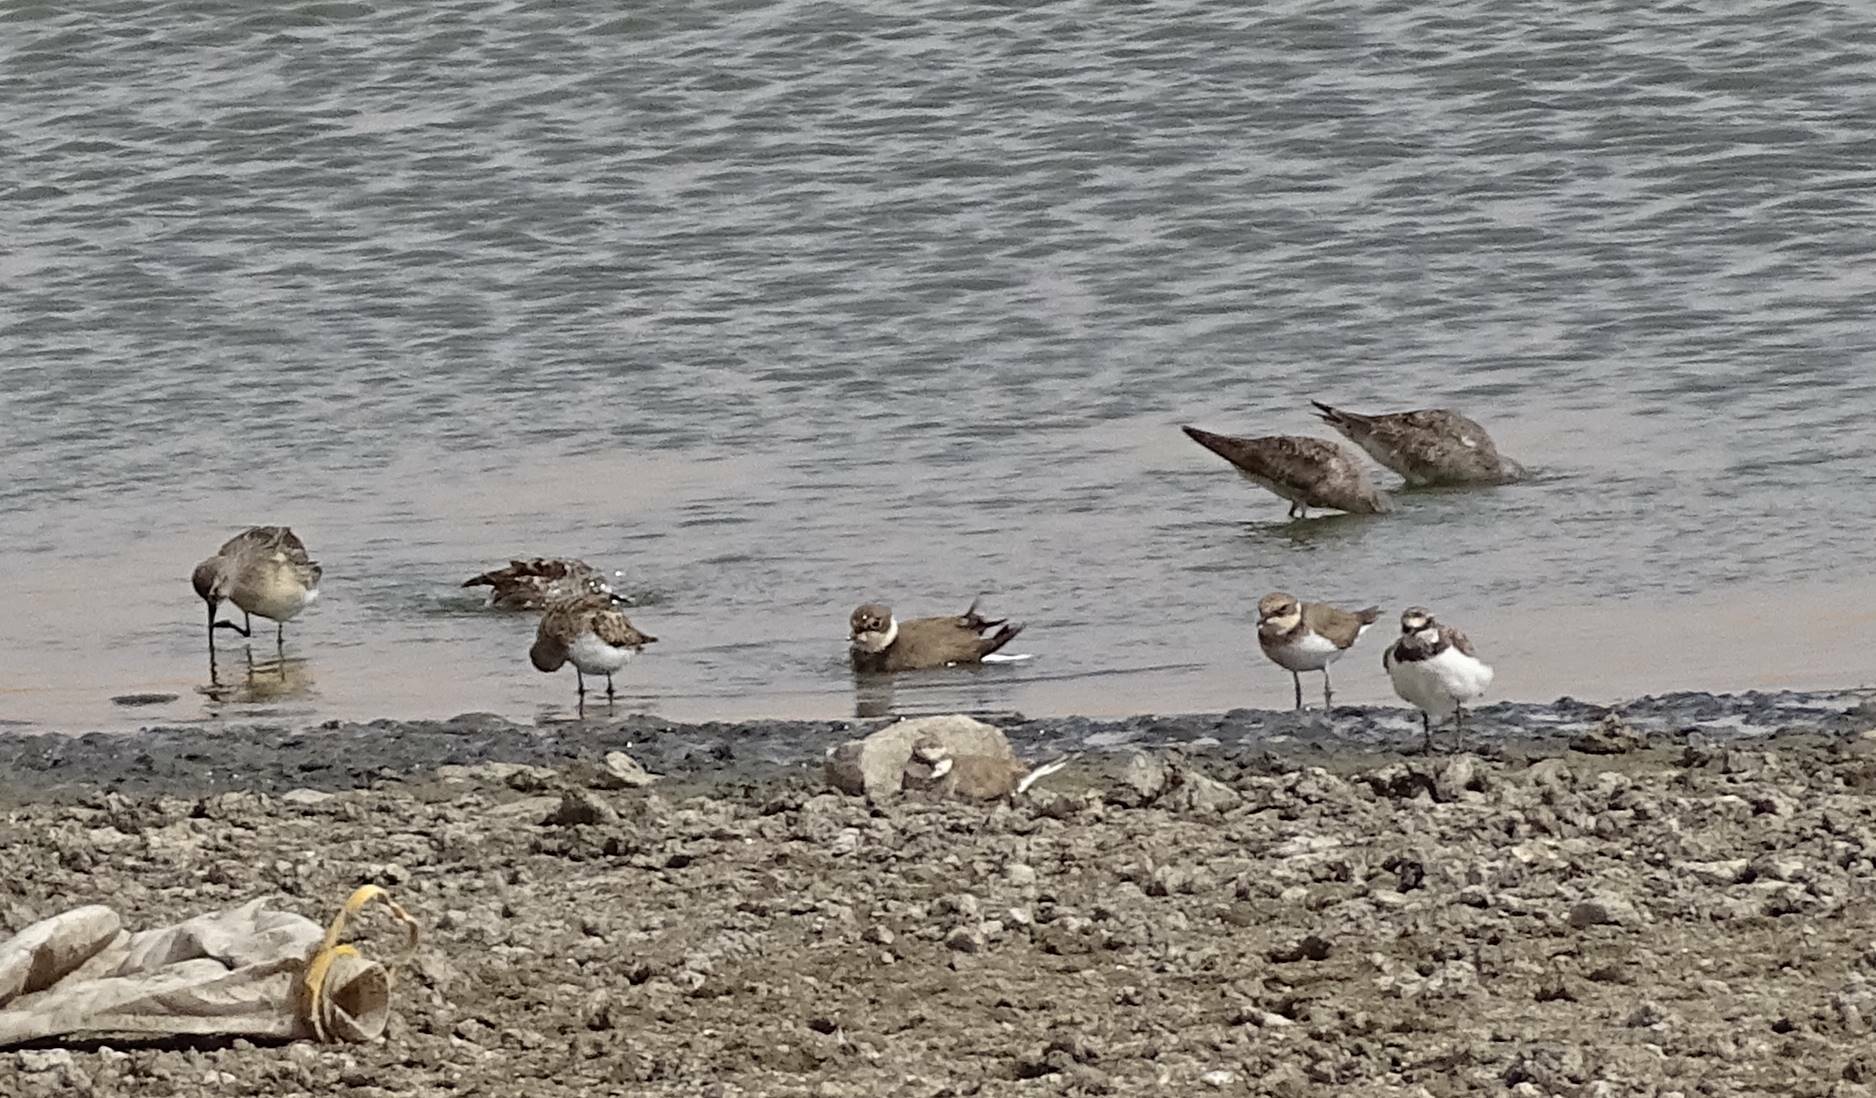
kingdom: Animalia
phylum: Chordata
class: Aves
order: Charadriiformes
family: Scolopacidae
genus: Calidris
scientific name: Calidris ferruginea
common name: Curlew sandpiper
